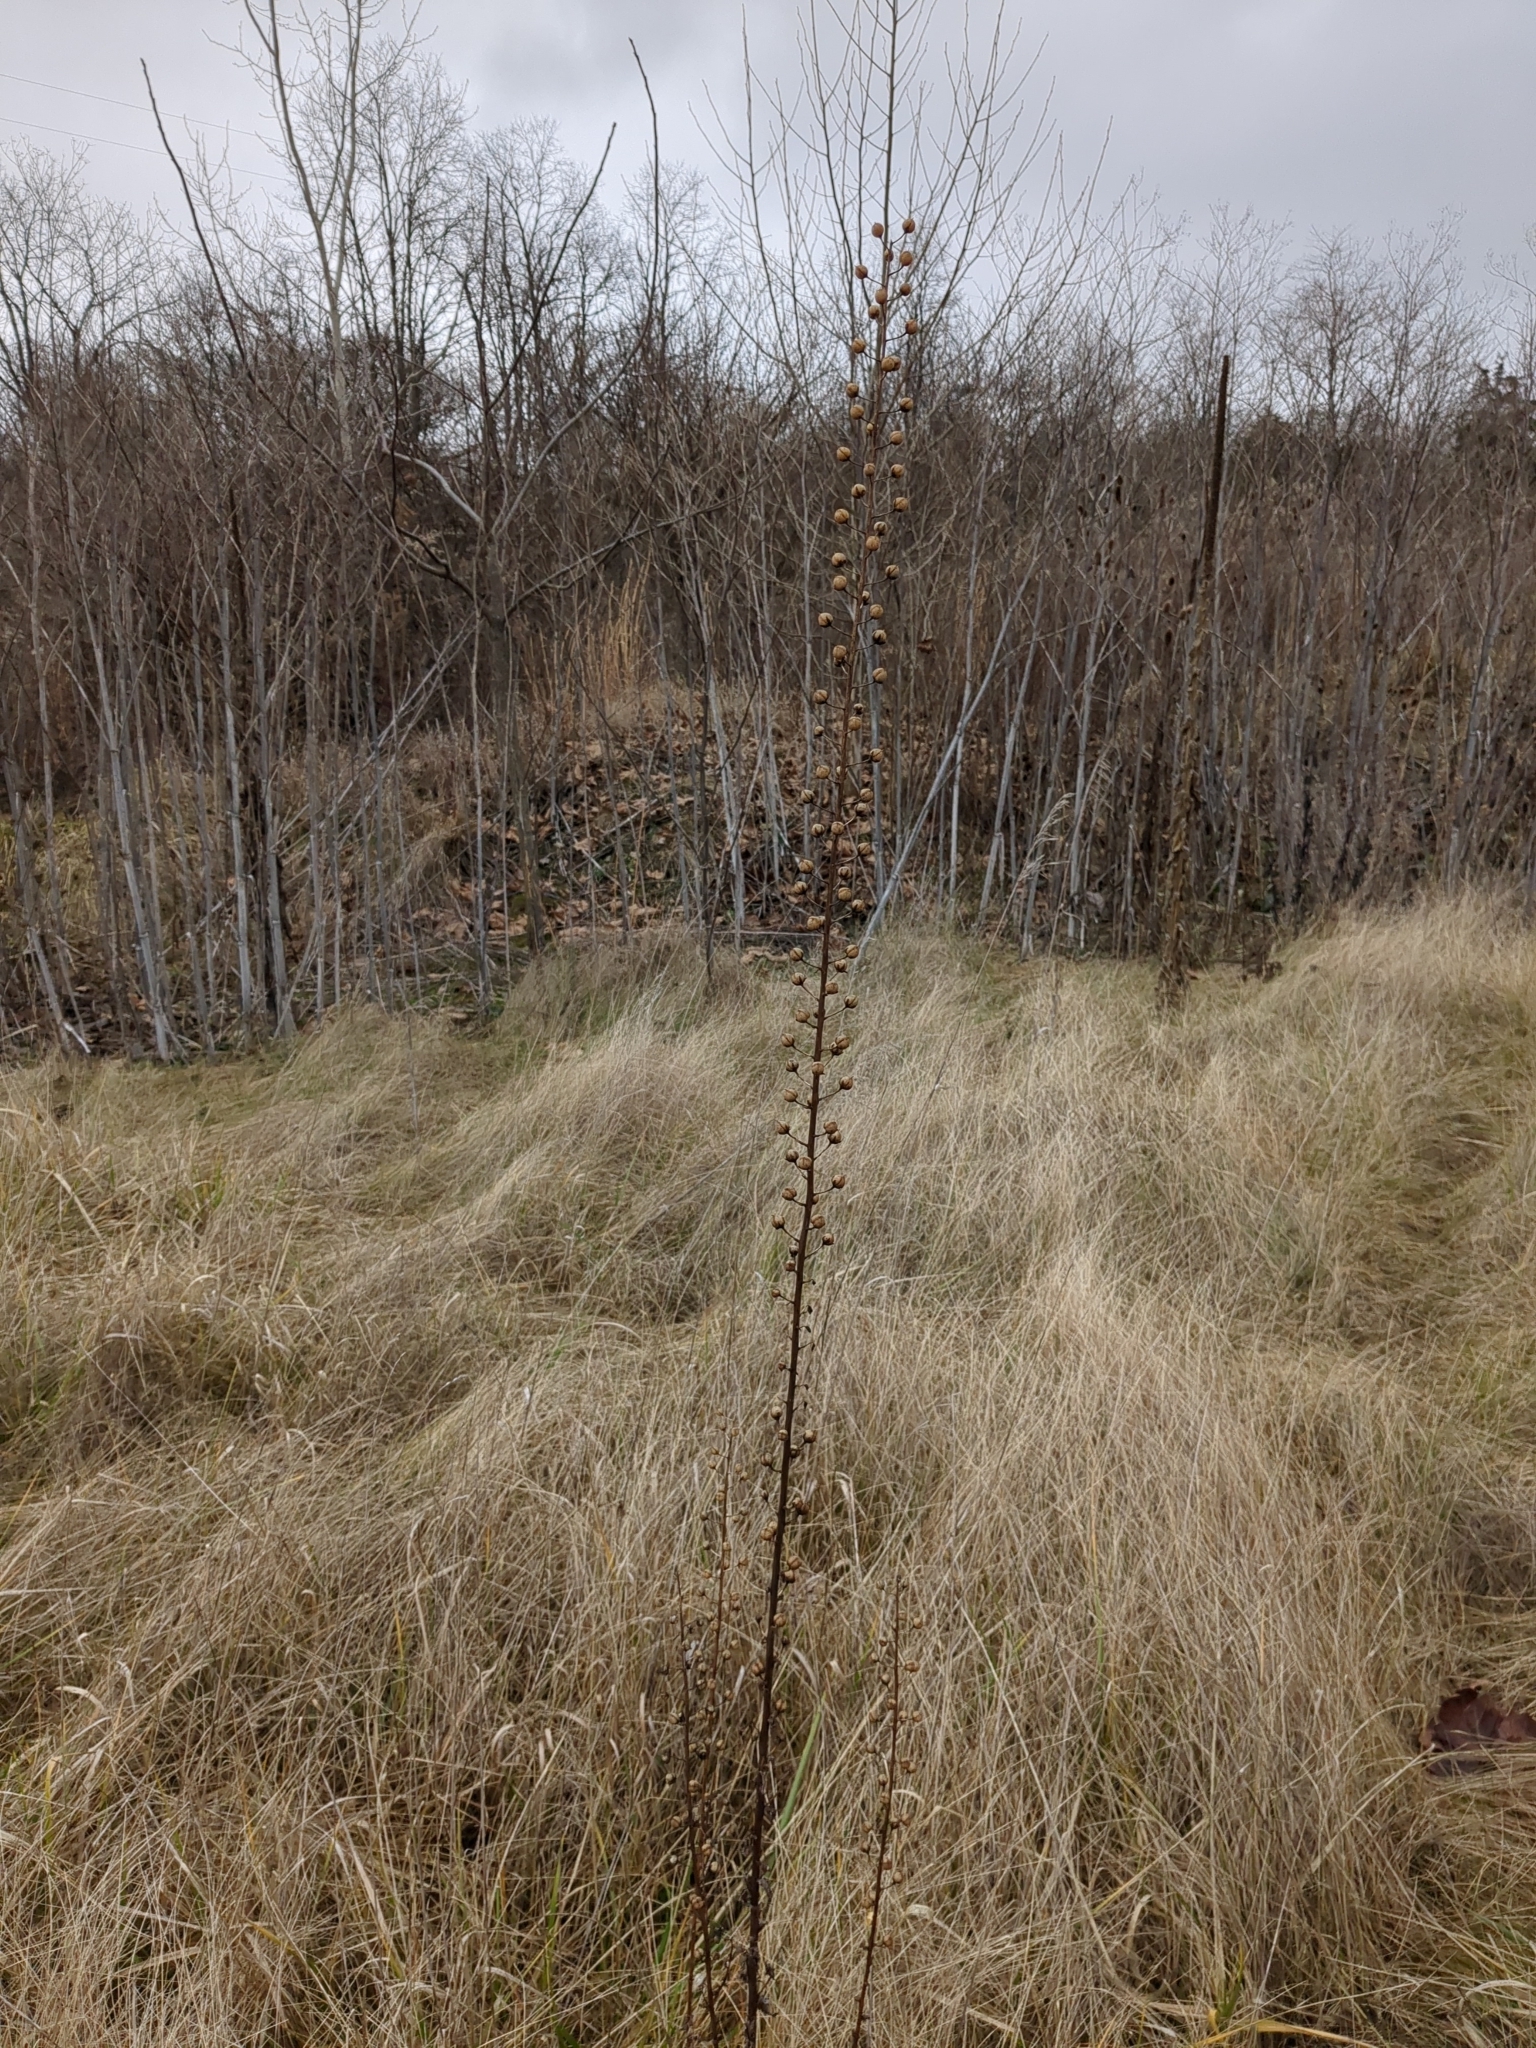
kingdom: Plantae
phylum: Tracheophyta
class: Magnoliopsida
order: Lamiales
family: Scrophulariaceae
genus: Verbascum
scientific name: Verbascum blattaria
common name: Moth mullein
